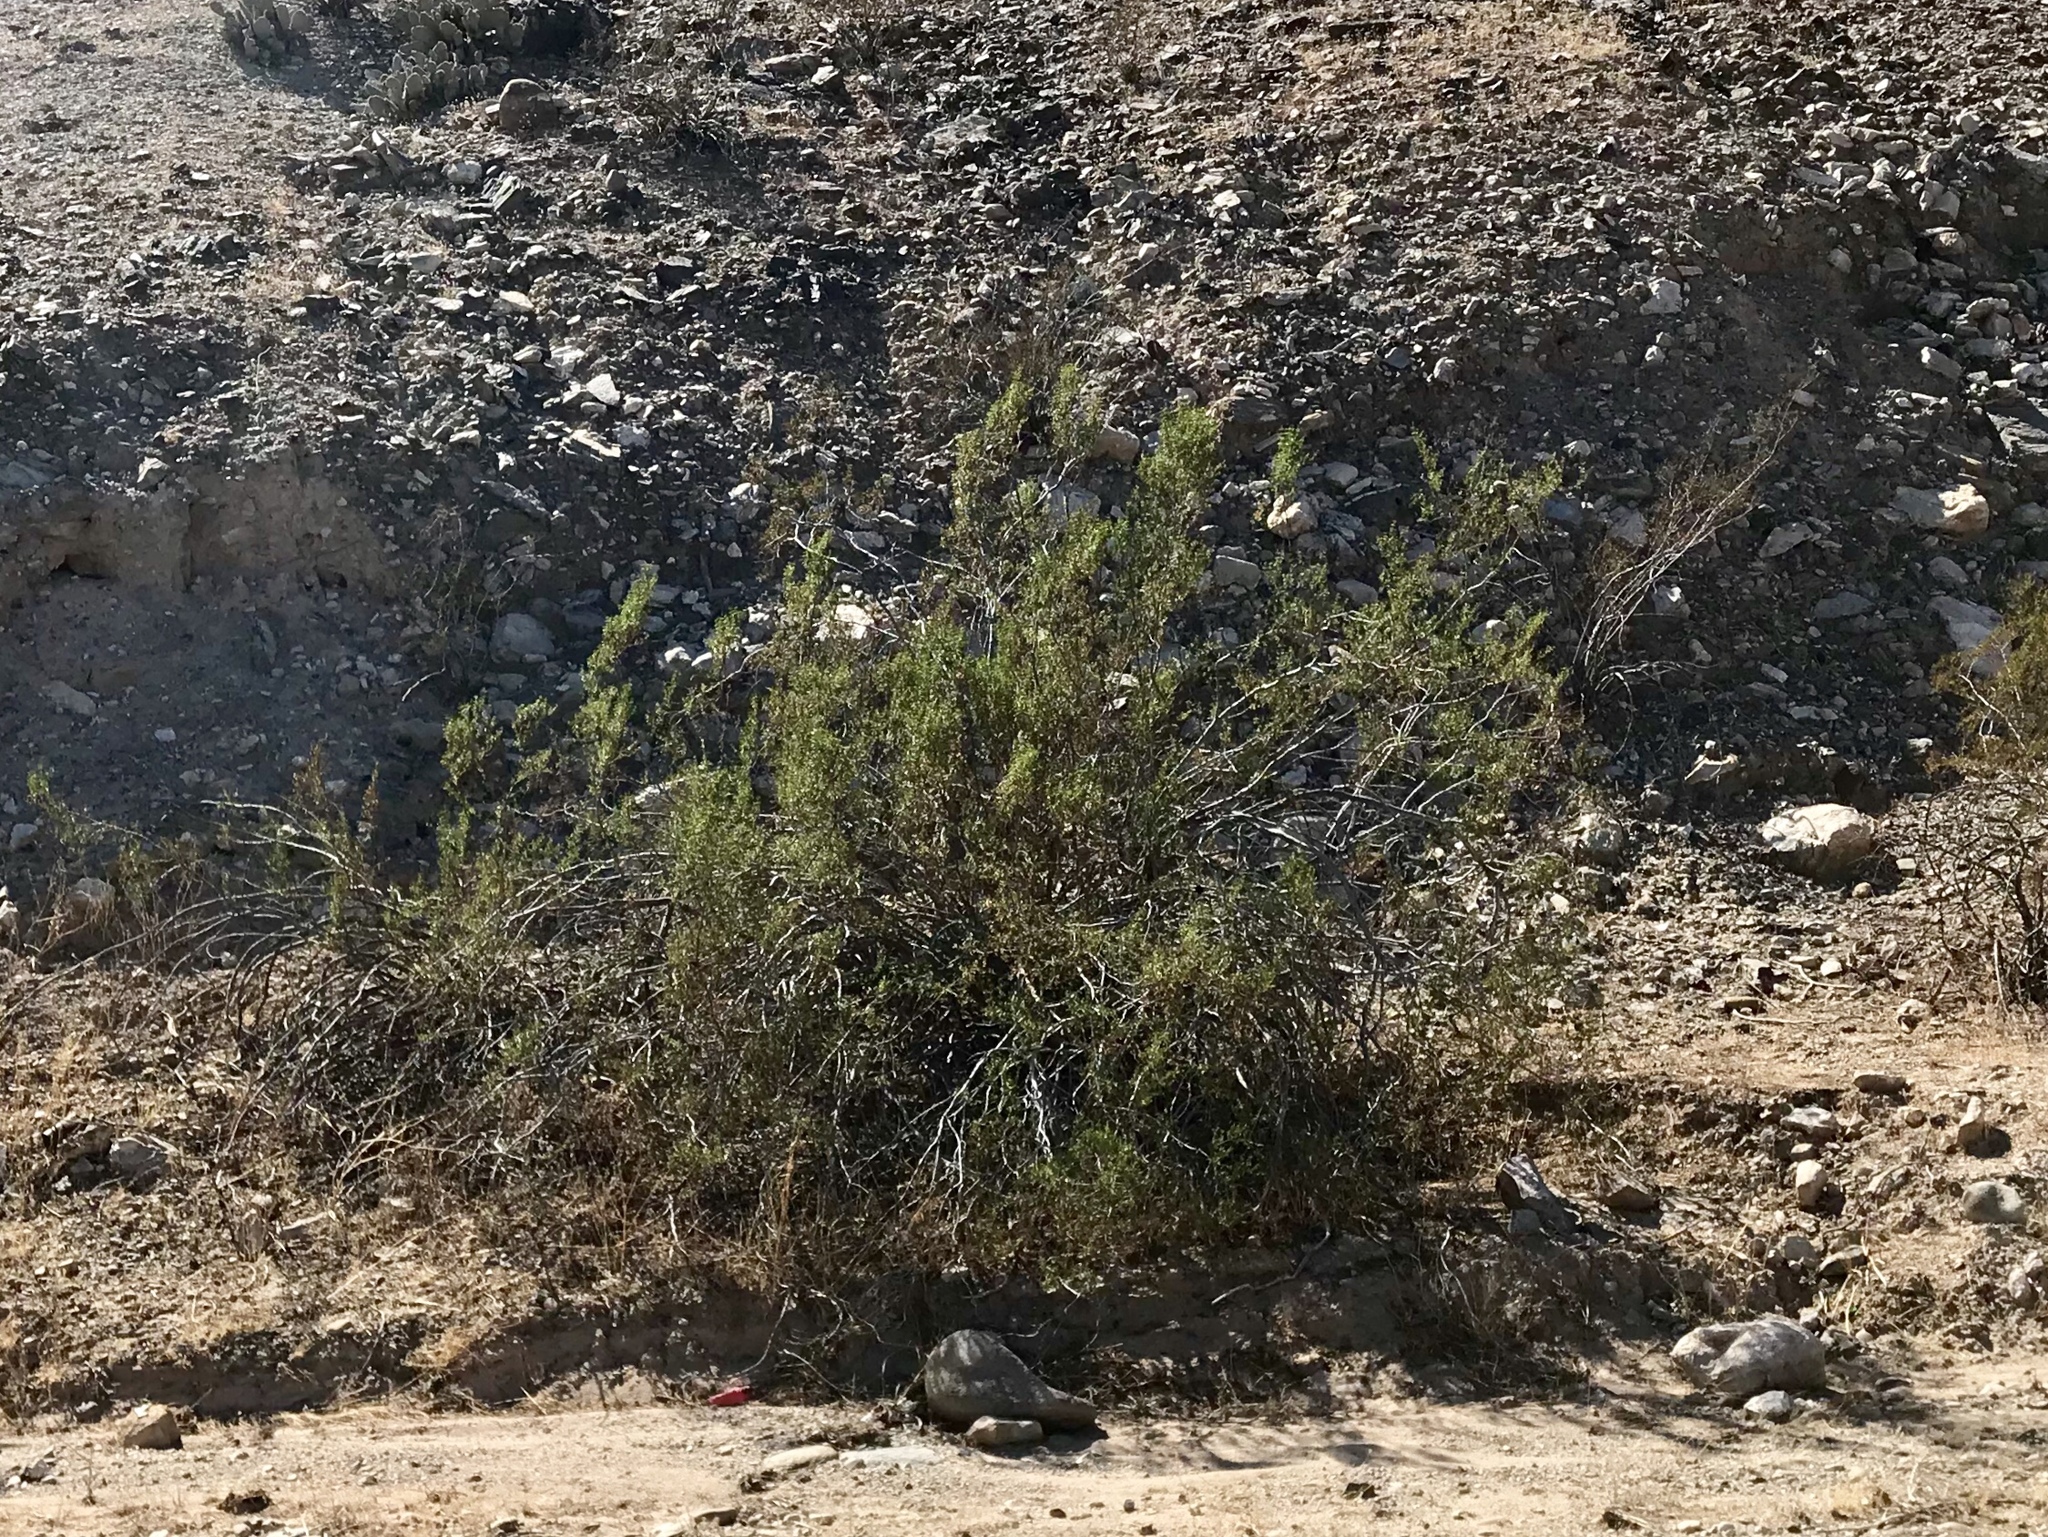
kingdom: Plantae
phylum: Tracheophyta
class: Magnoliopsida
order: Zygophyllales
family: Zygophyllaceae
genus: Larrea
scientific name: Larrea tridentata
